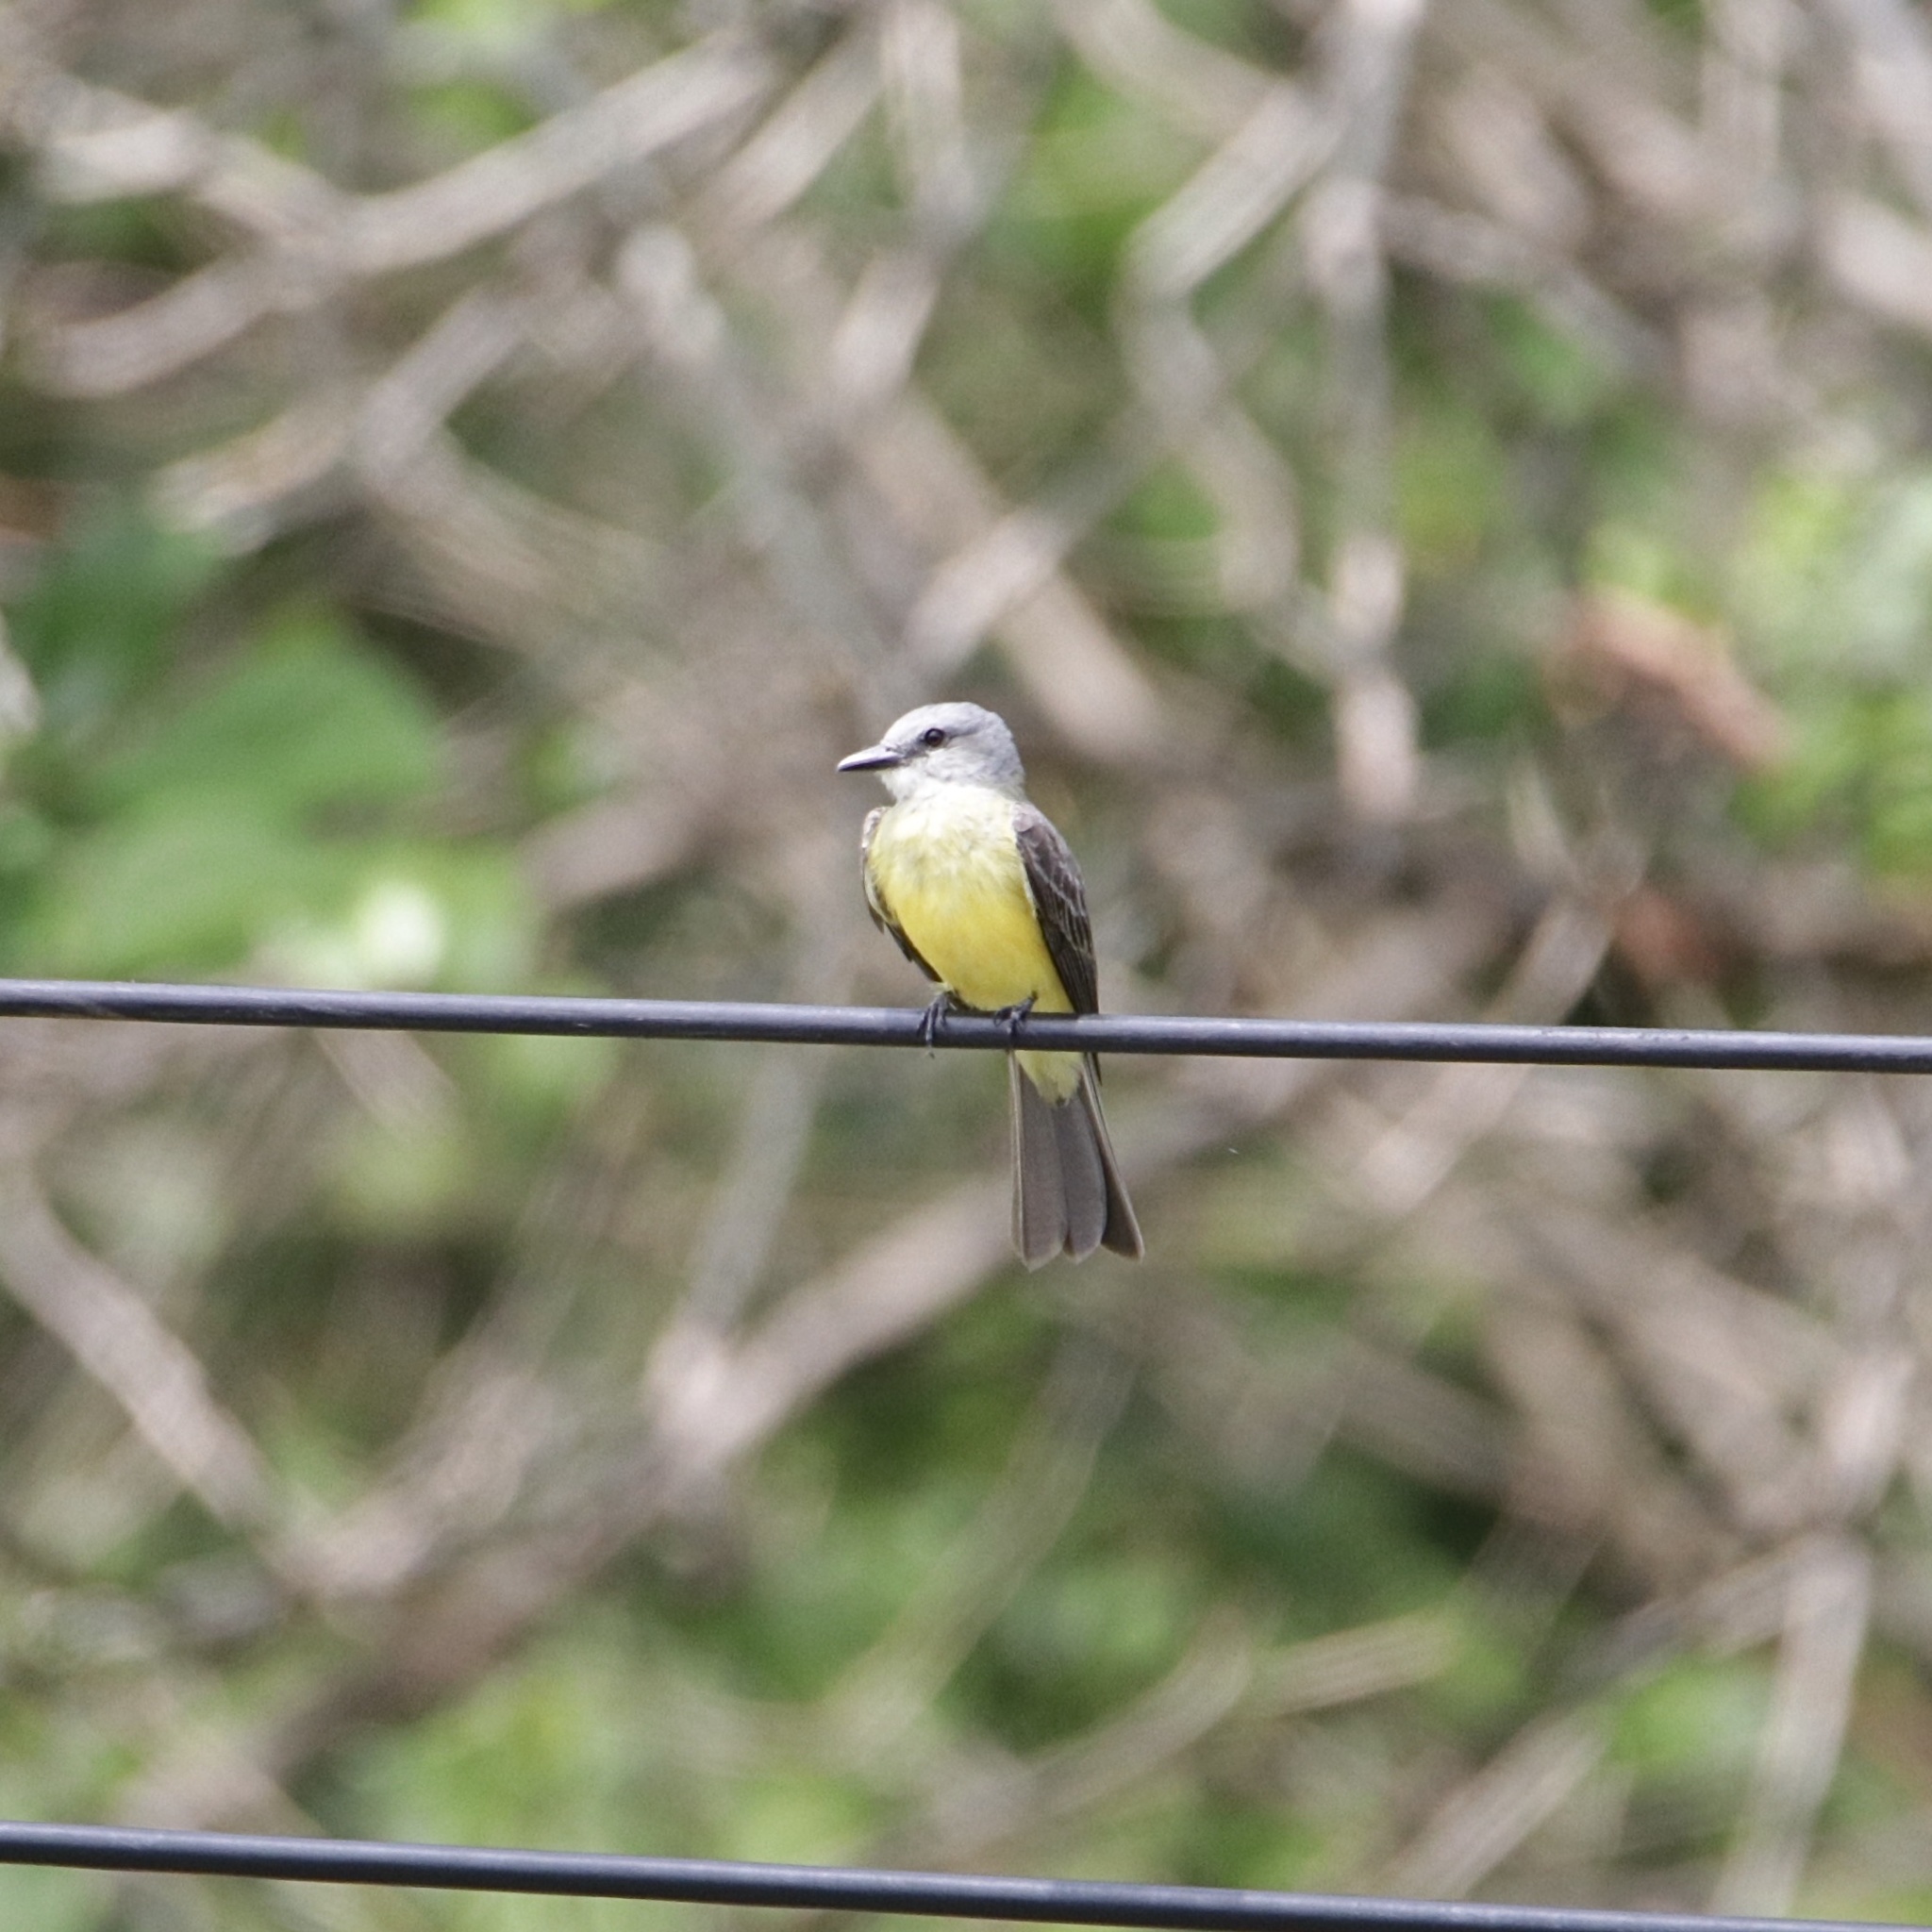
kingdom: Animalia
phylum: Chordata
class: Aves
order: Passeriformes
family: Tyrannidae
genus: Tyrannus
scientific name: Tyrannus melancholicus
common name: Tropical kingbird
